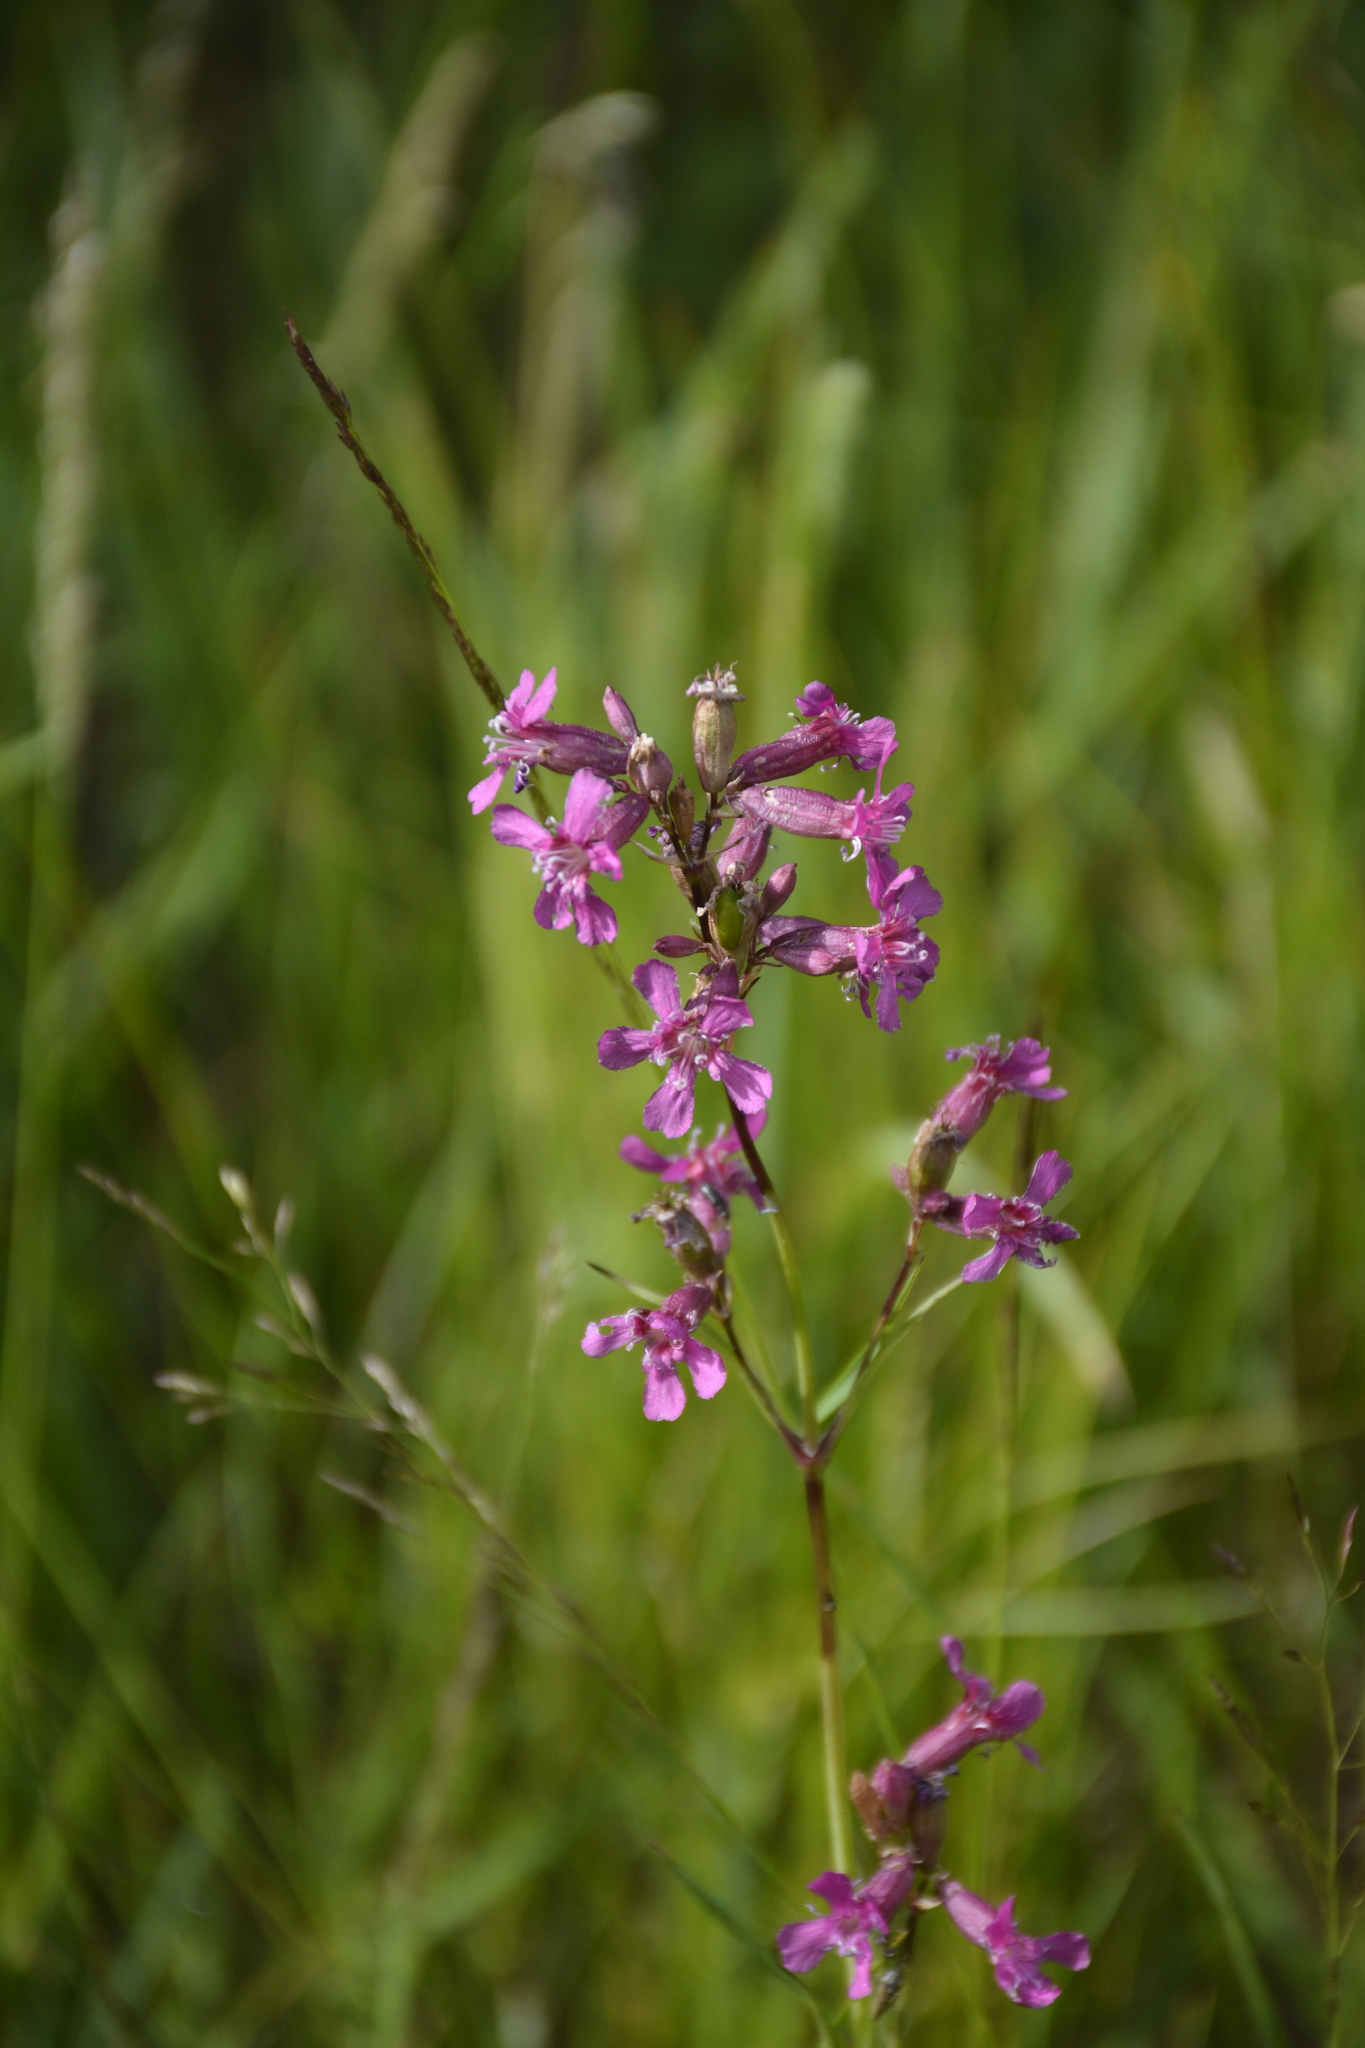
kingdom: Plantae
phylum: Tracheophyta
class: Magnoliopsida
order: Caryophyllales
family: Caryophyllaceae
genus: Viscaria
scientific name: Viscaria vulgaris
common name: Clammy campion
